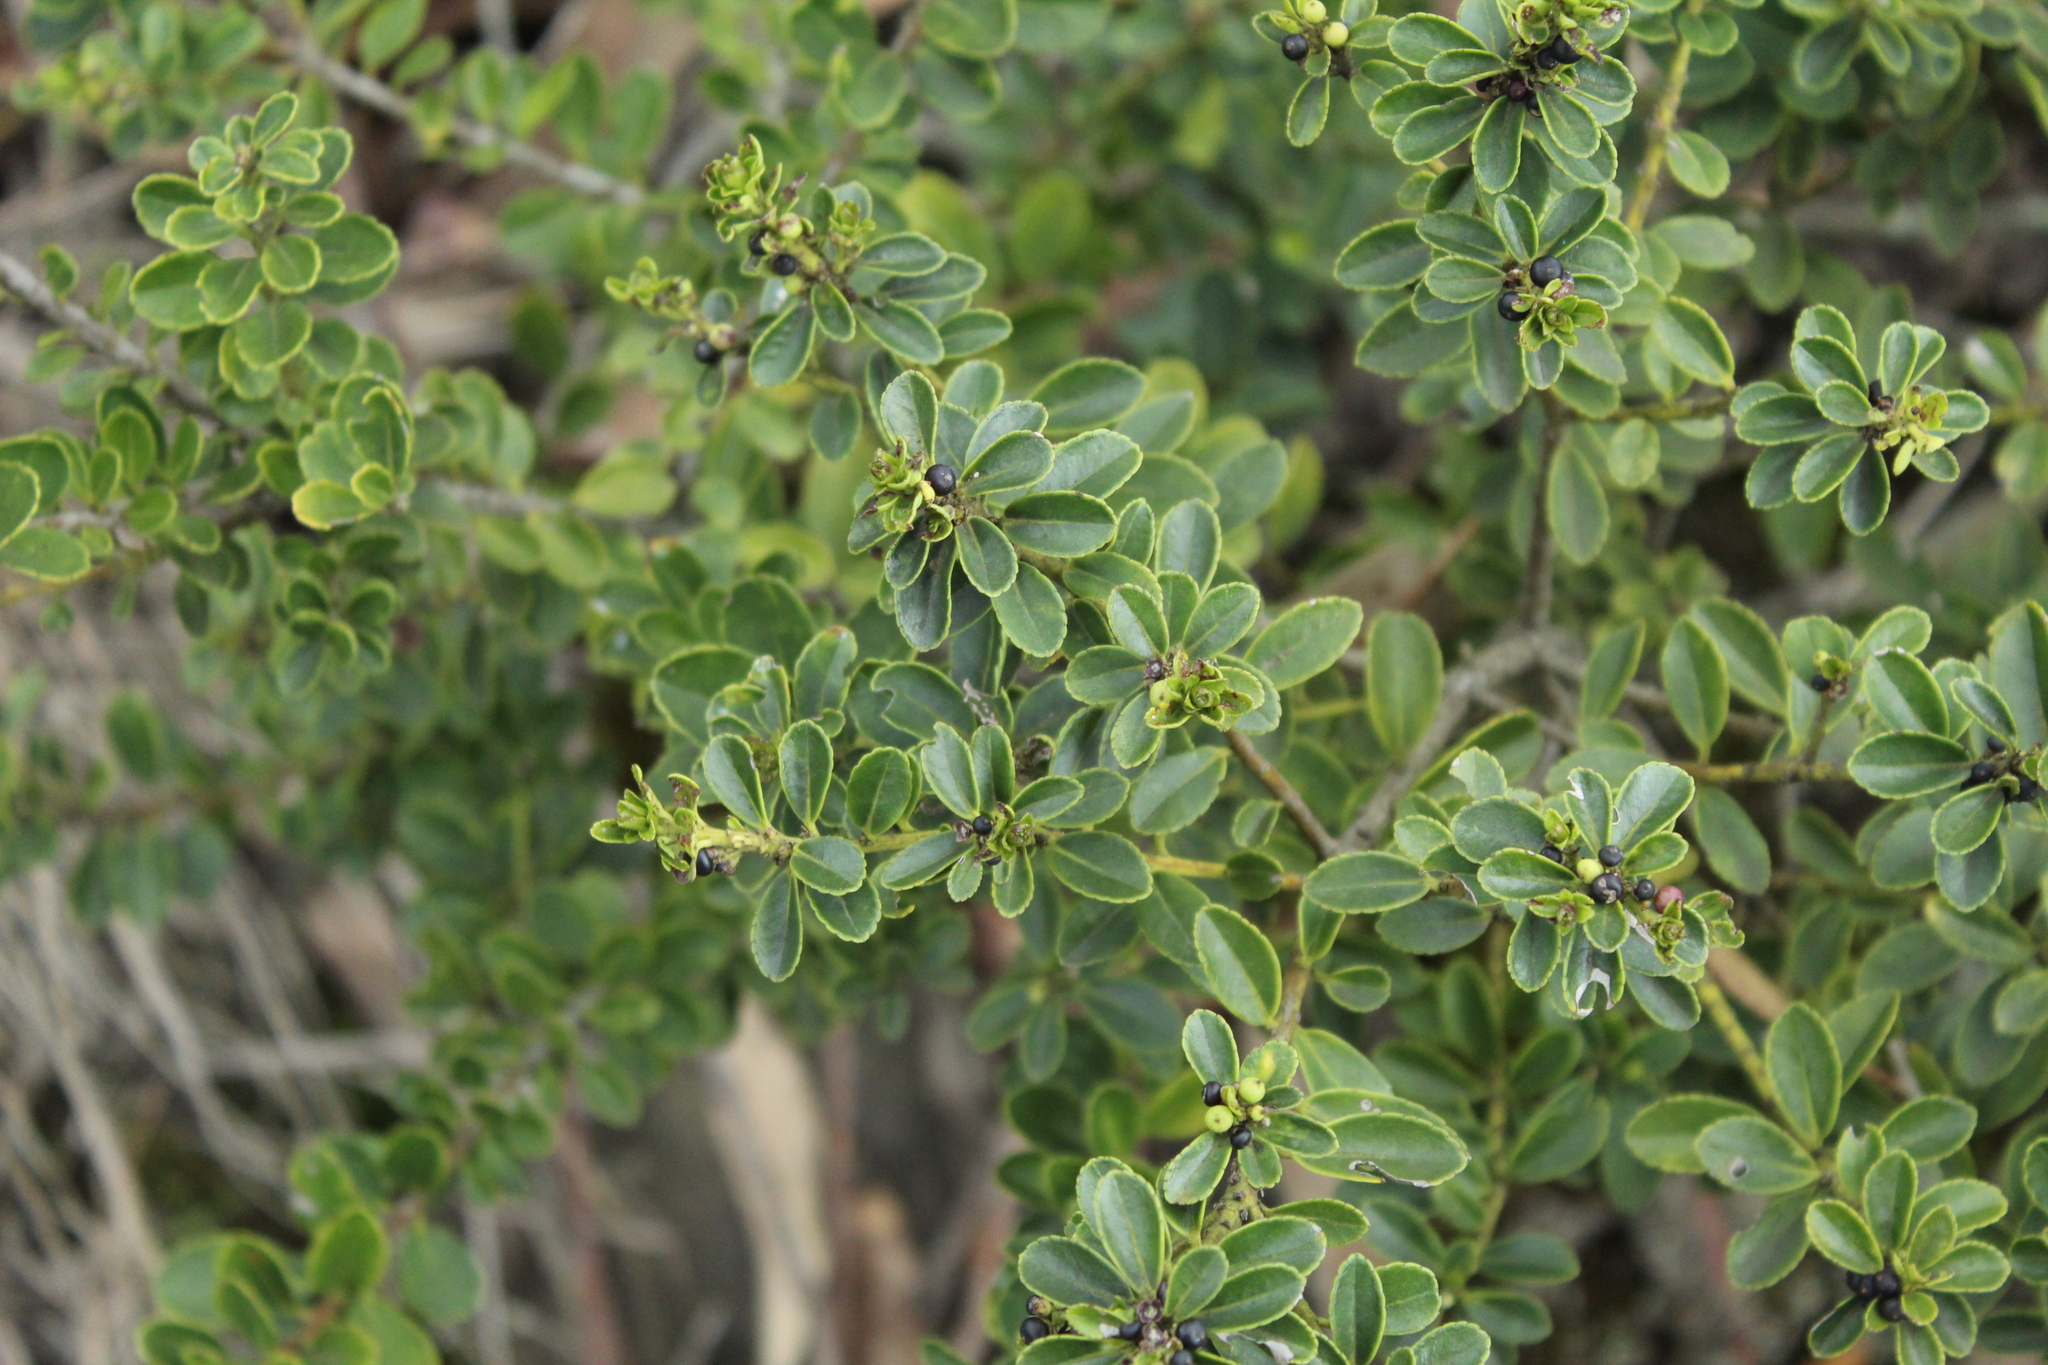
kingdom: Plantae
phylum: Tracheophyta
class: Magnoliopsida
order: Aquifoliales
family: Aquifoliaceae
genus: Ilex
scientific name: Ilex microphylla
